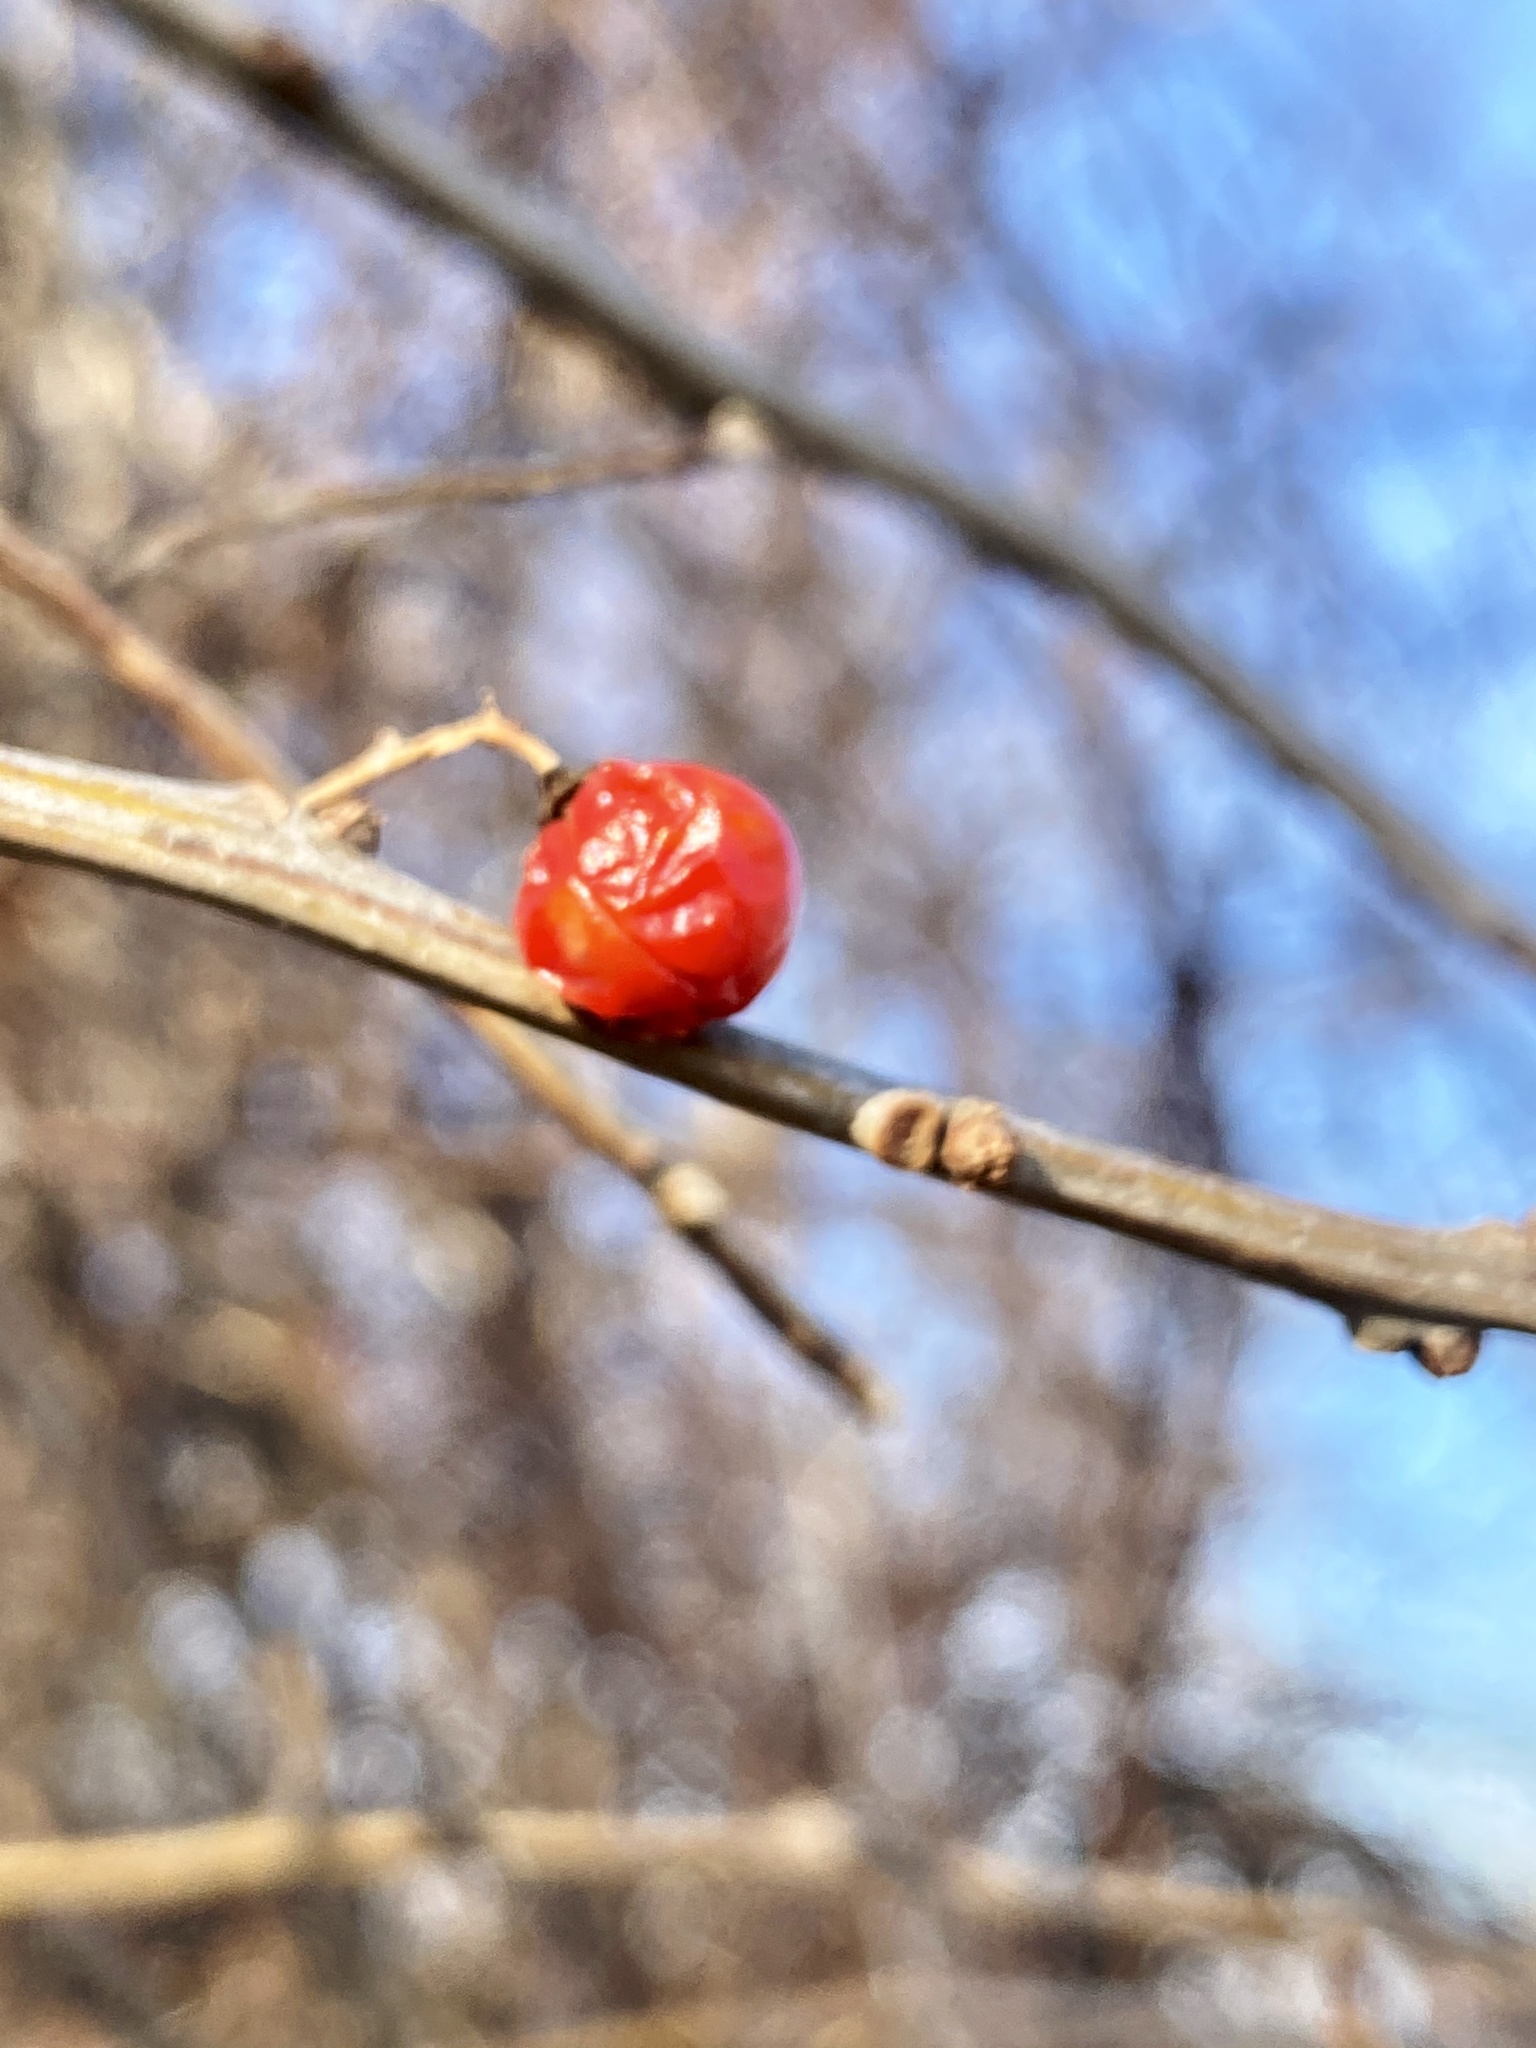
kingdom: Plantae
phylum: Tracheophyta
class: Magnoliopsida
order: Celastrales
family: Celastraceae
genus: Celastrus
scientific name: Celastrus orbiculatus
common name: Oriental bittersweet
